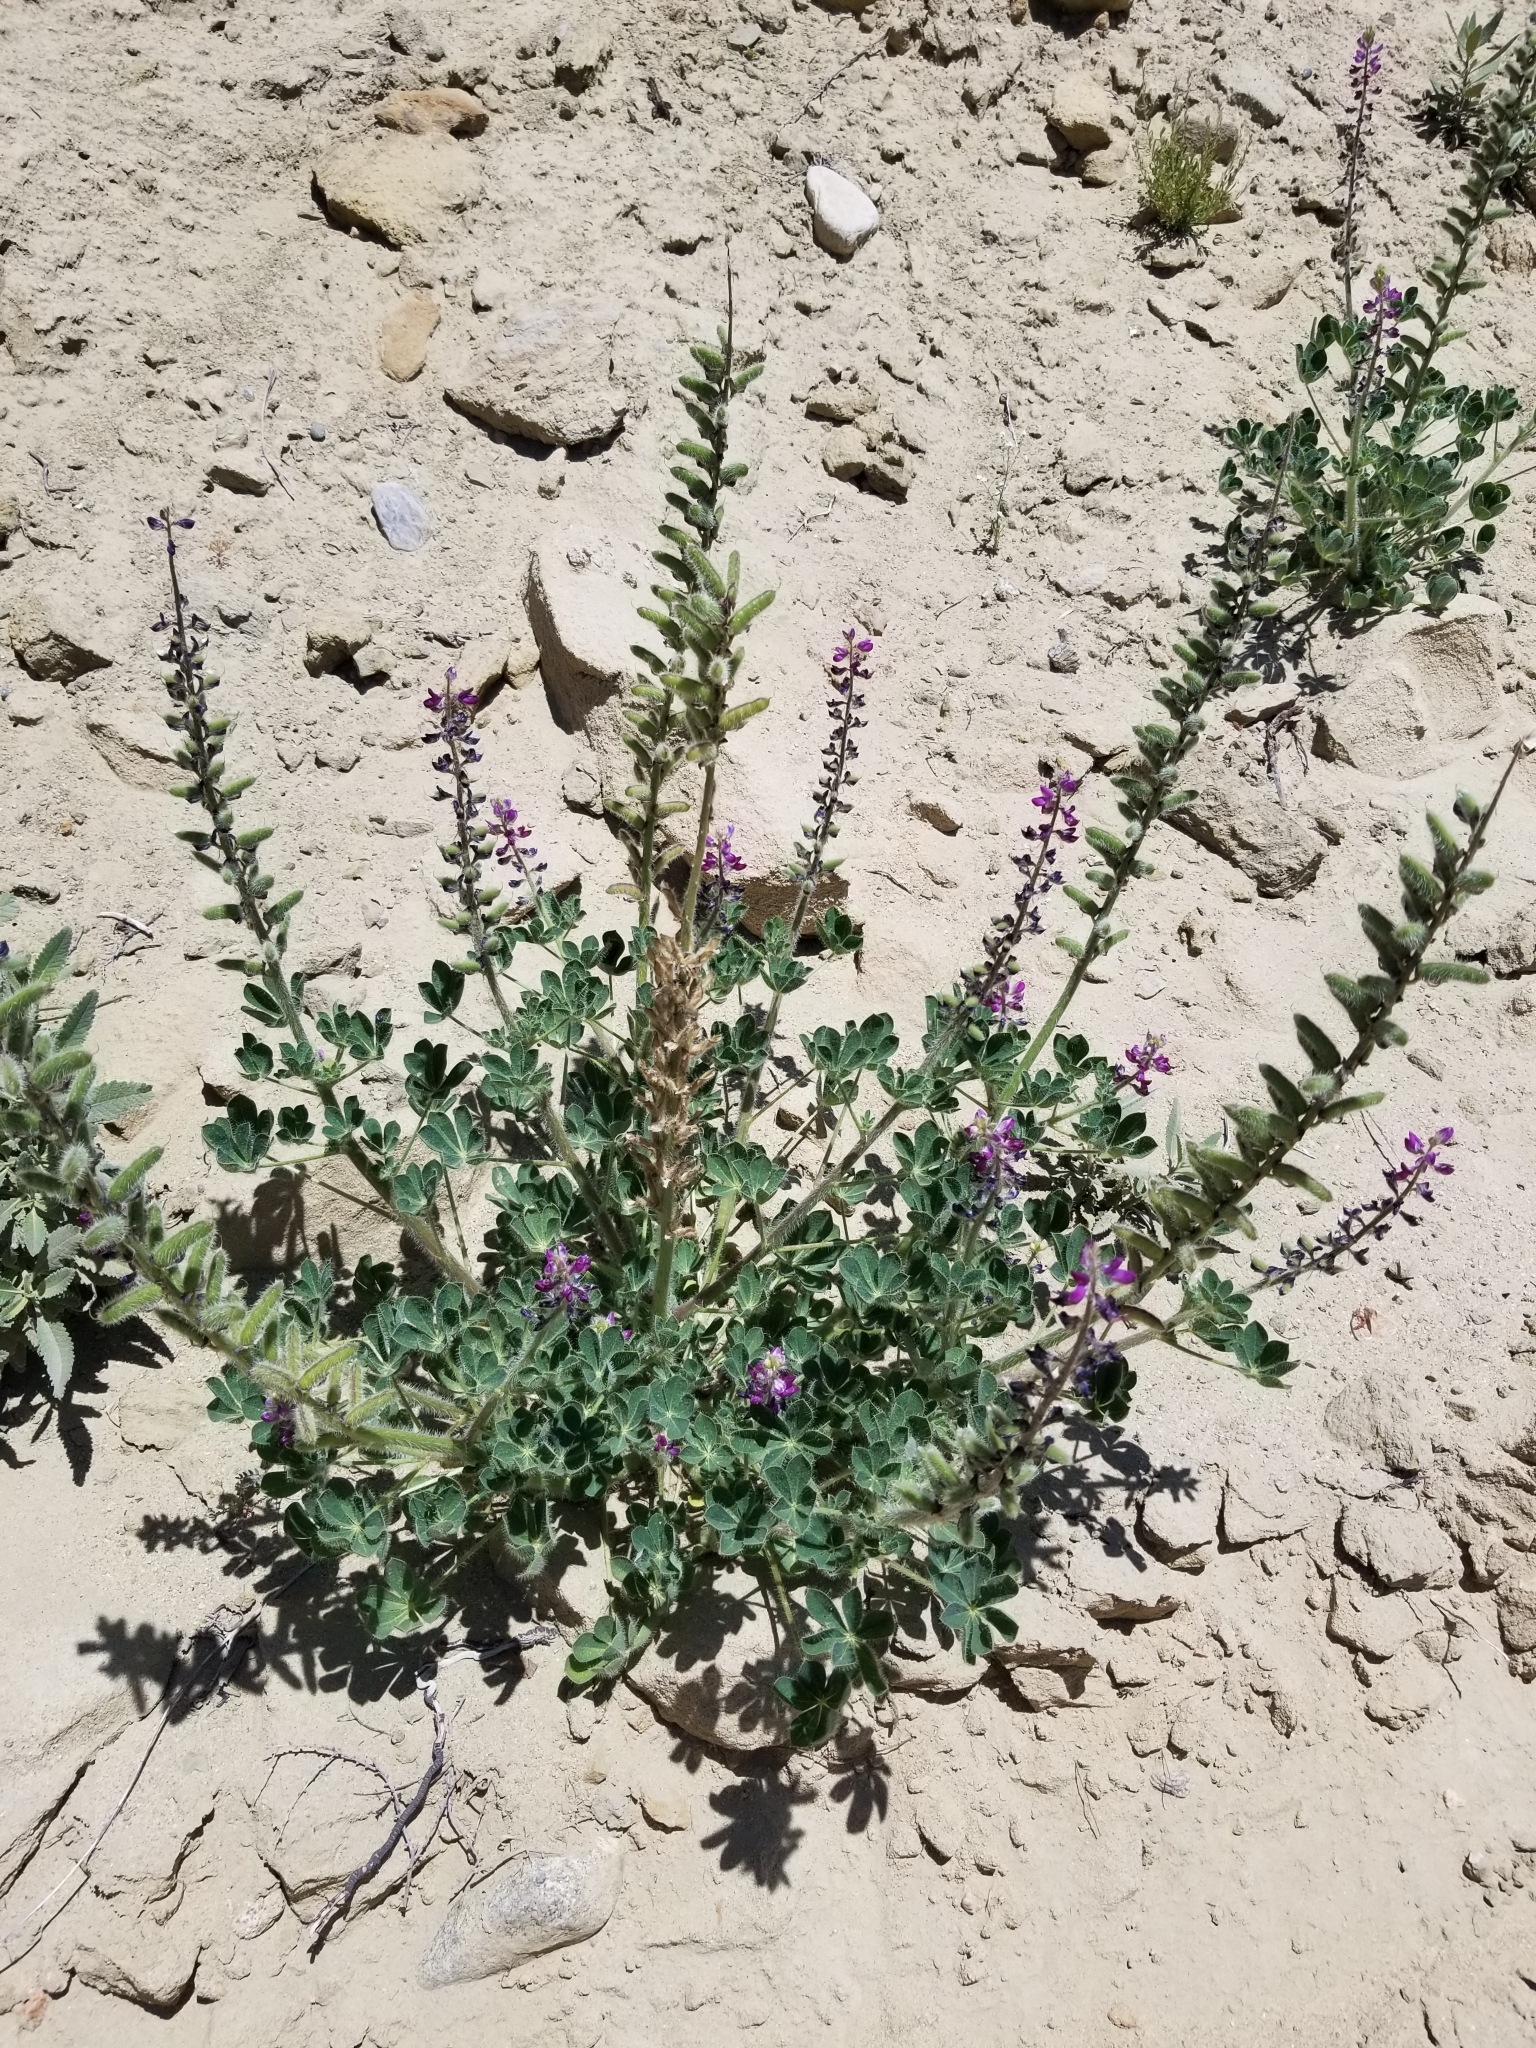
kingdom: Plantae
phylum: Tracheophyta
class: Magnoliopsida
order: Fabales
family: Fabaceae
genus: Lupinus
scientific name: Lupinus hirsutissimus
